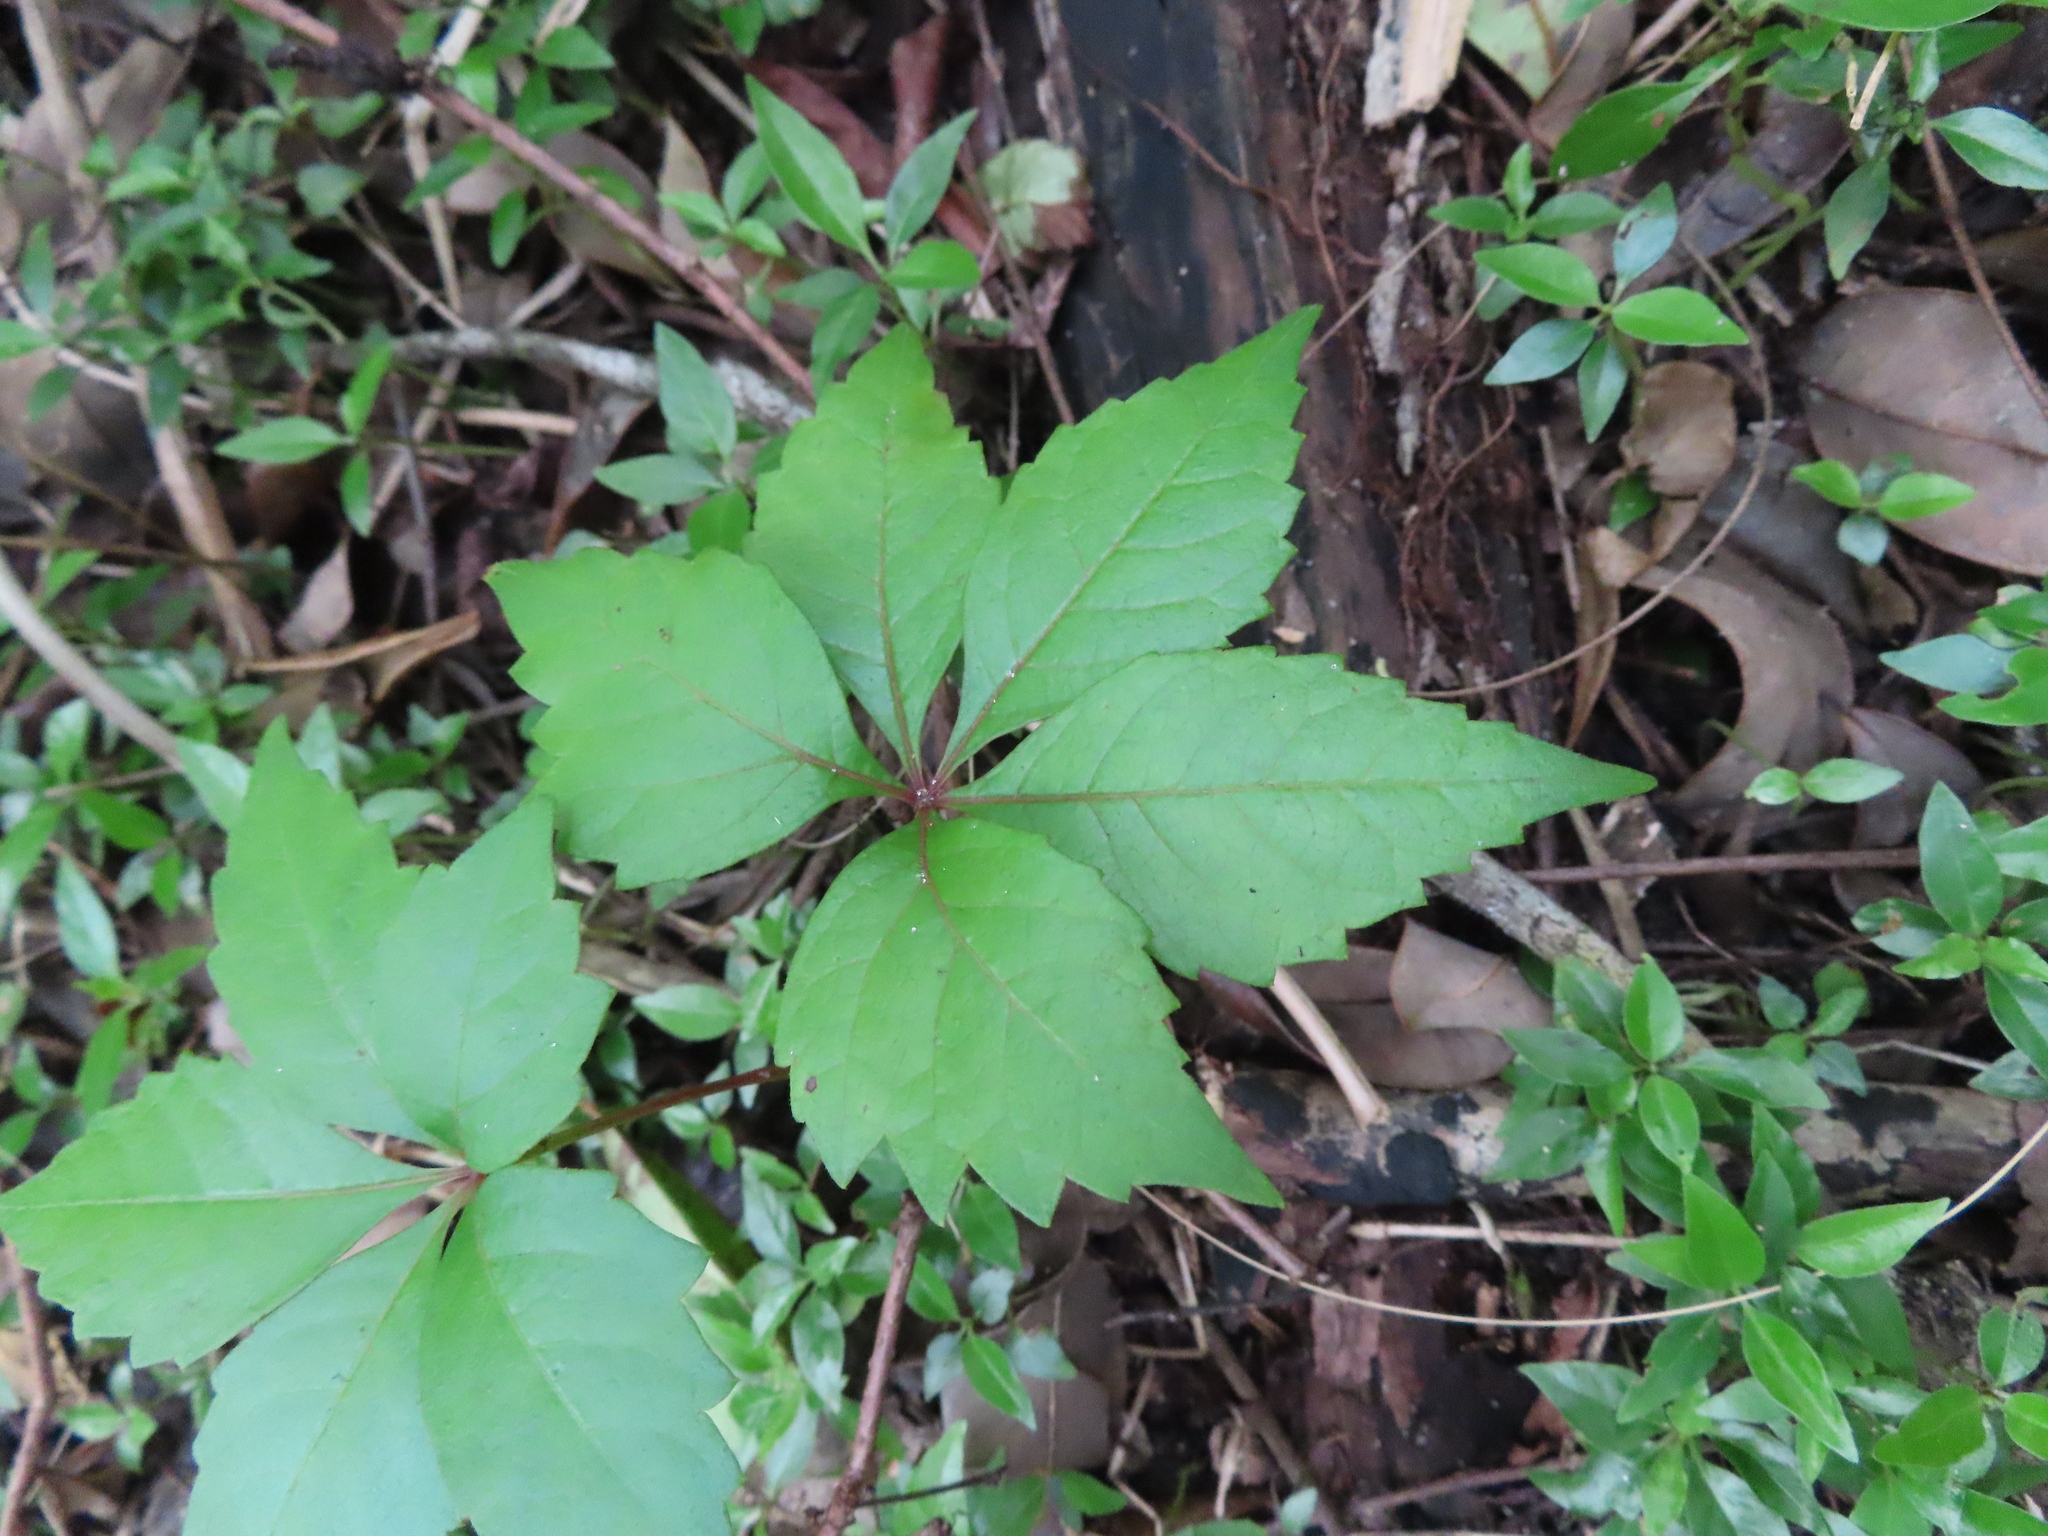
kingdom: Plantae
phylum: Tracheophyta
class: Magnoliopsida
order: Vitales
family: Vitaceae
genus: Parthenocissus
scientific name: Parthenocissus quinquefolia
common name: Virginia-creeper
